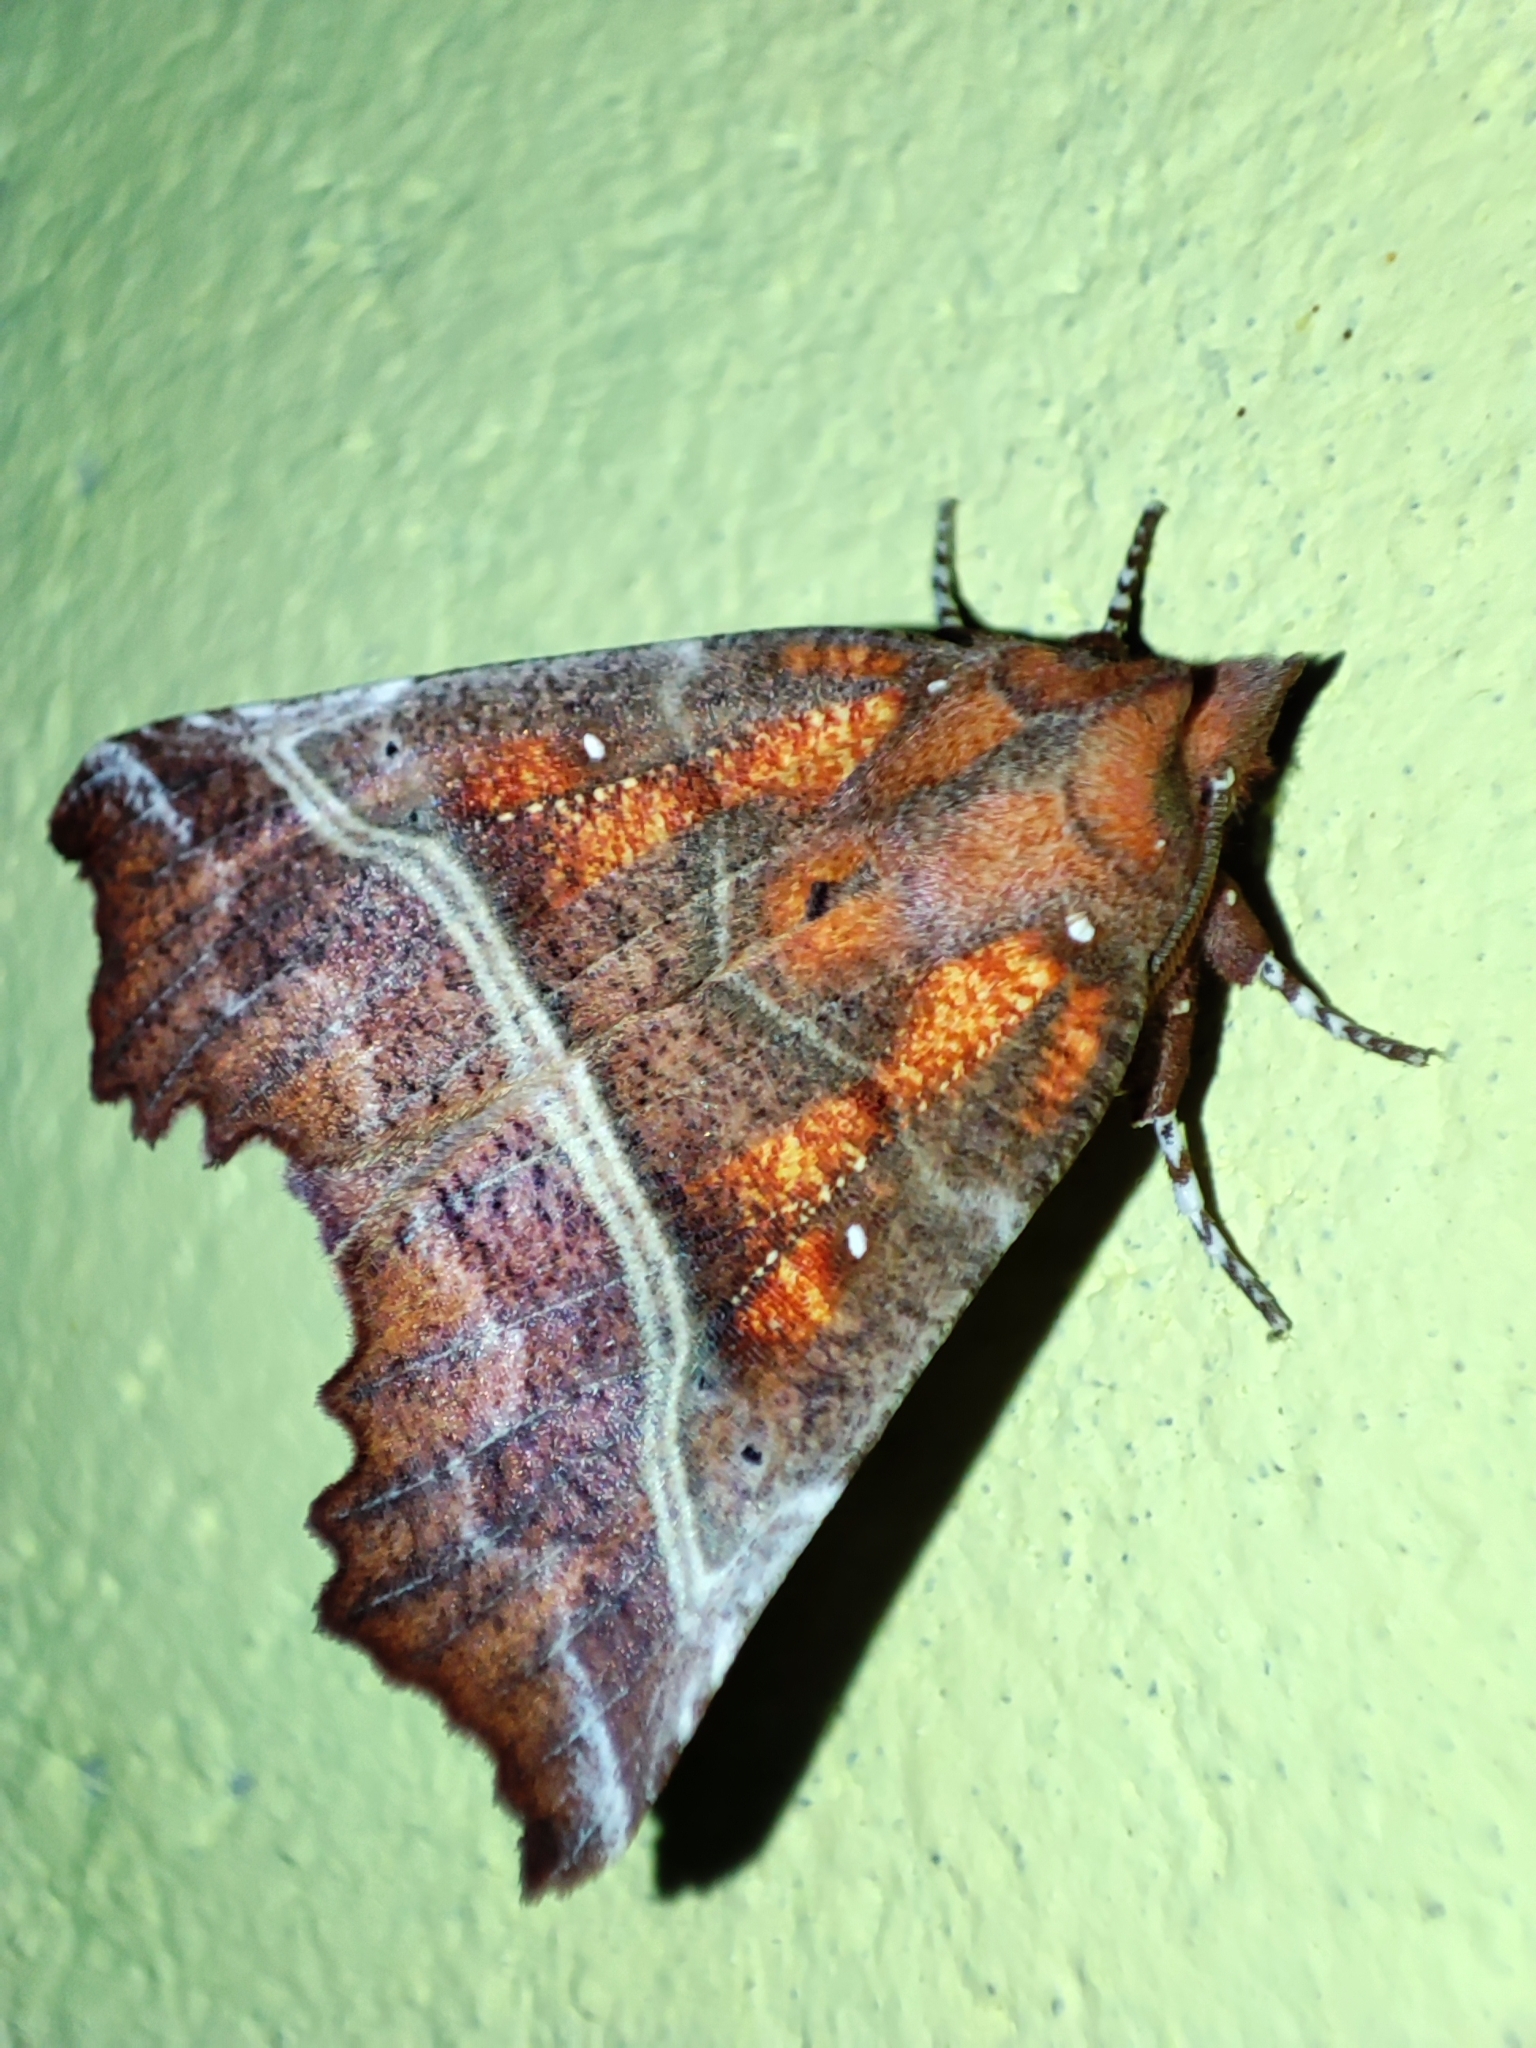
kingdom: Animalia
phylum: Arthropoda
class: Insecta
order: Lepidoptera
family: Erebidae
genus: Scoliopteryx
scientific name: Scoliopteryx libatrix
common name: Herald
